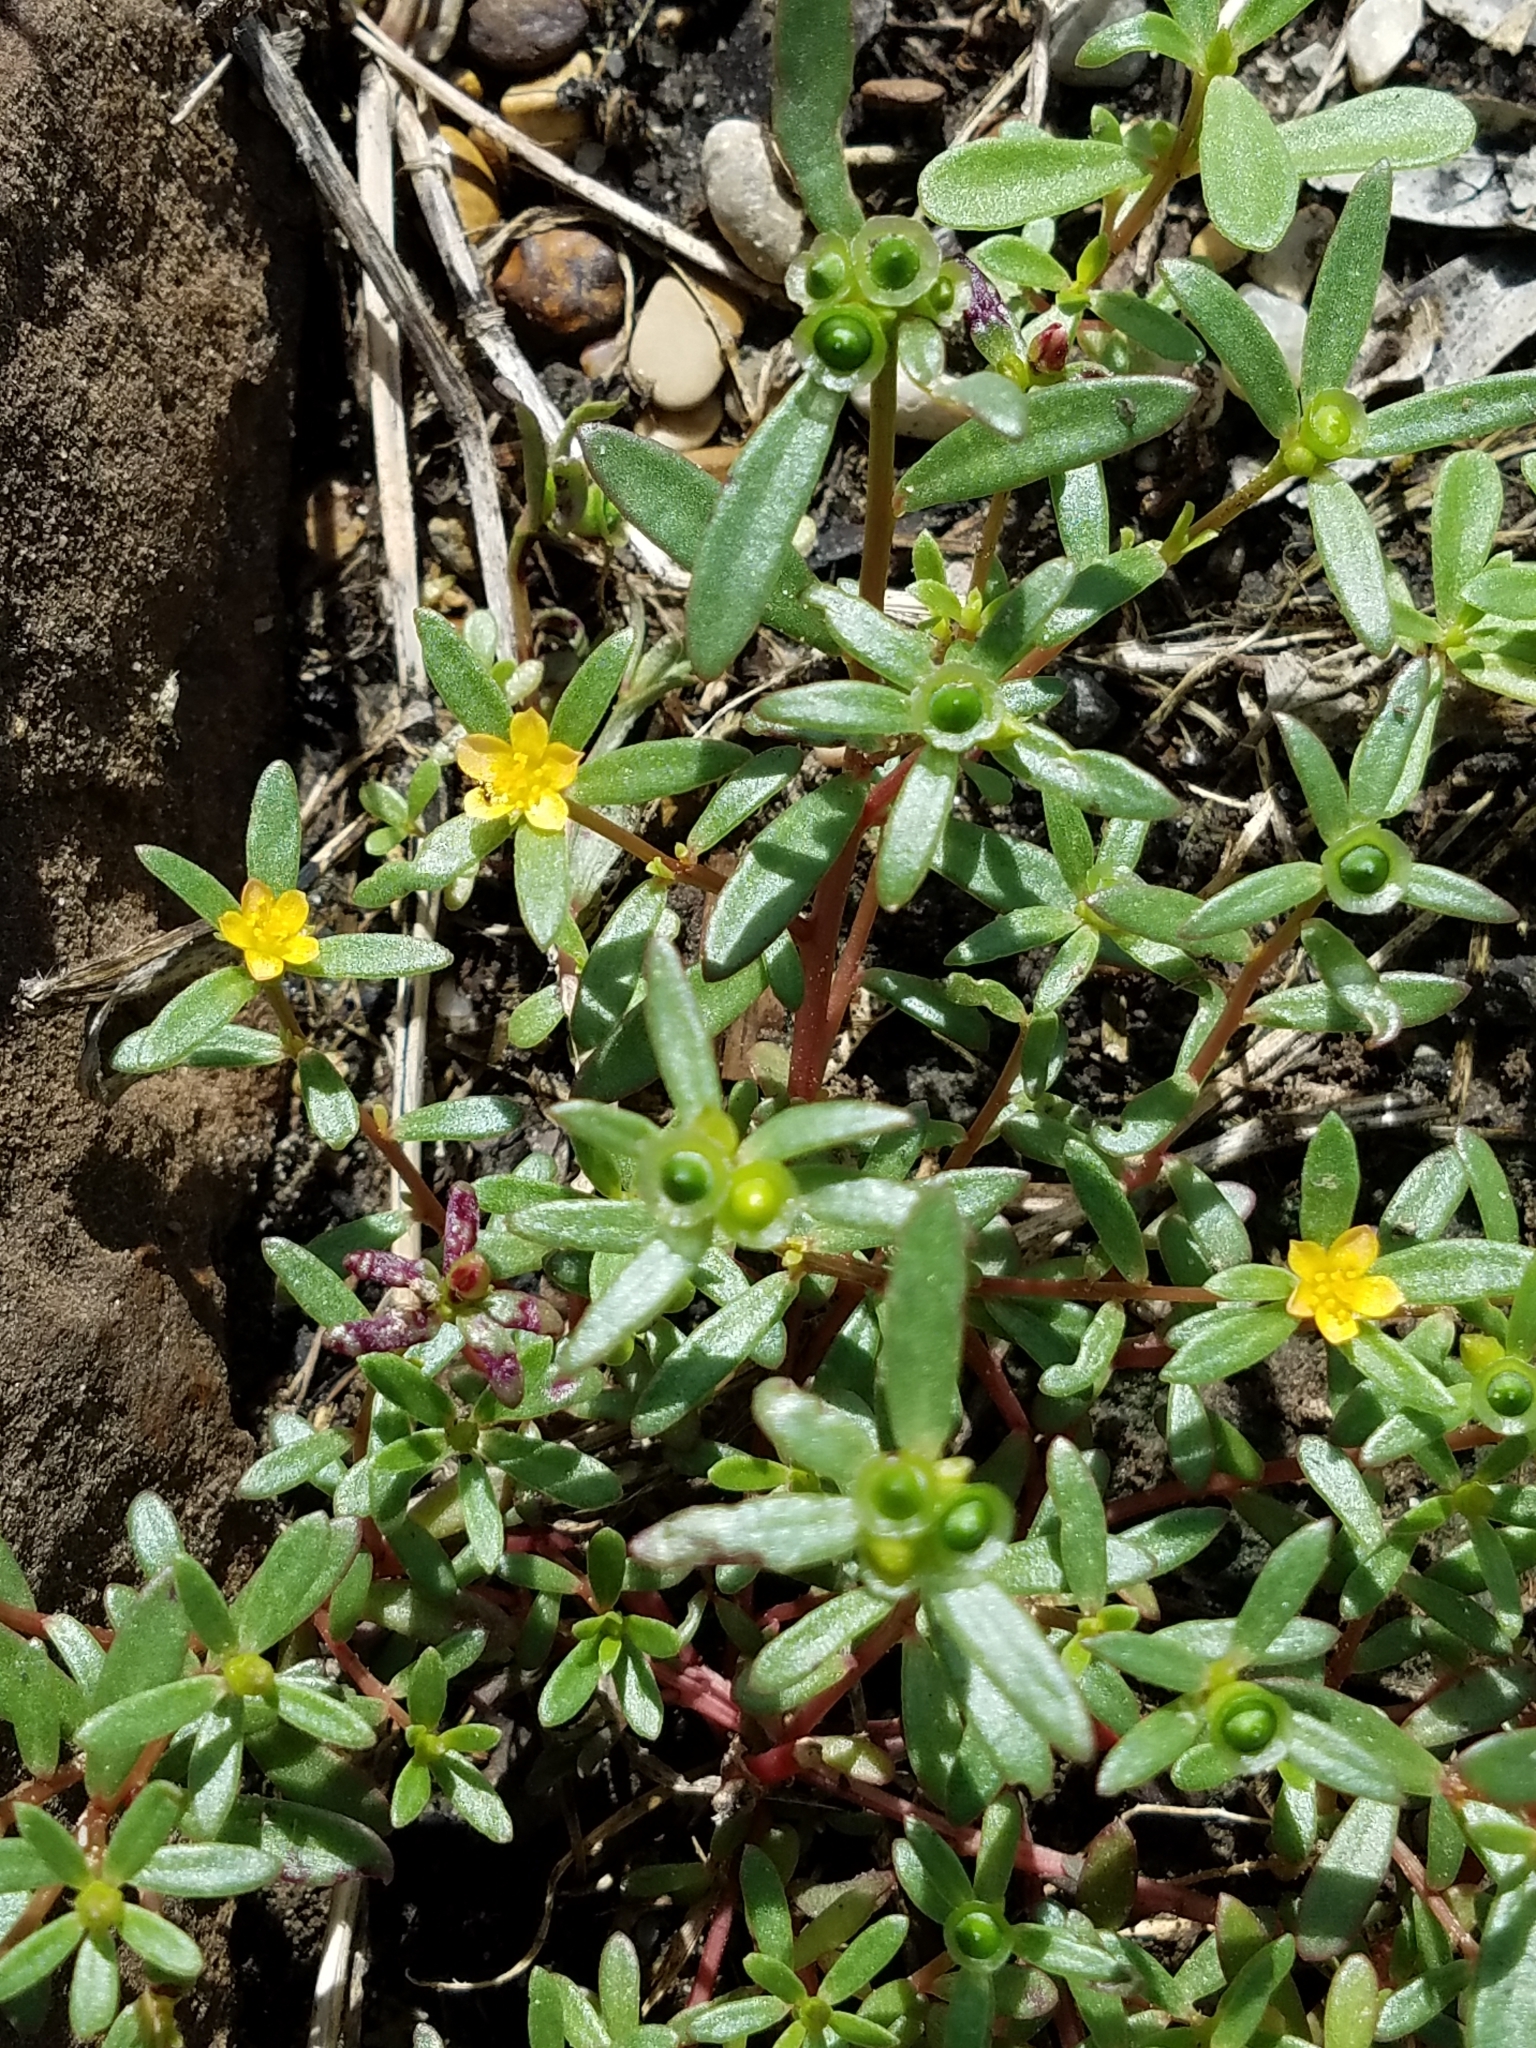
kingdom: Plantae
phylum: Tracheophyta
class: Magnoliopsida
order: Caryophyllales
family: Portulacaceae
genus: Portulaca
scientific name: Portulaca umbraticola
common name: Wingpod purslane
